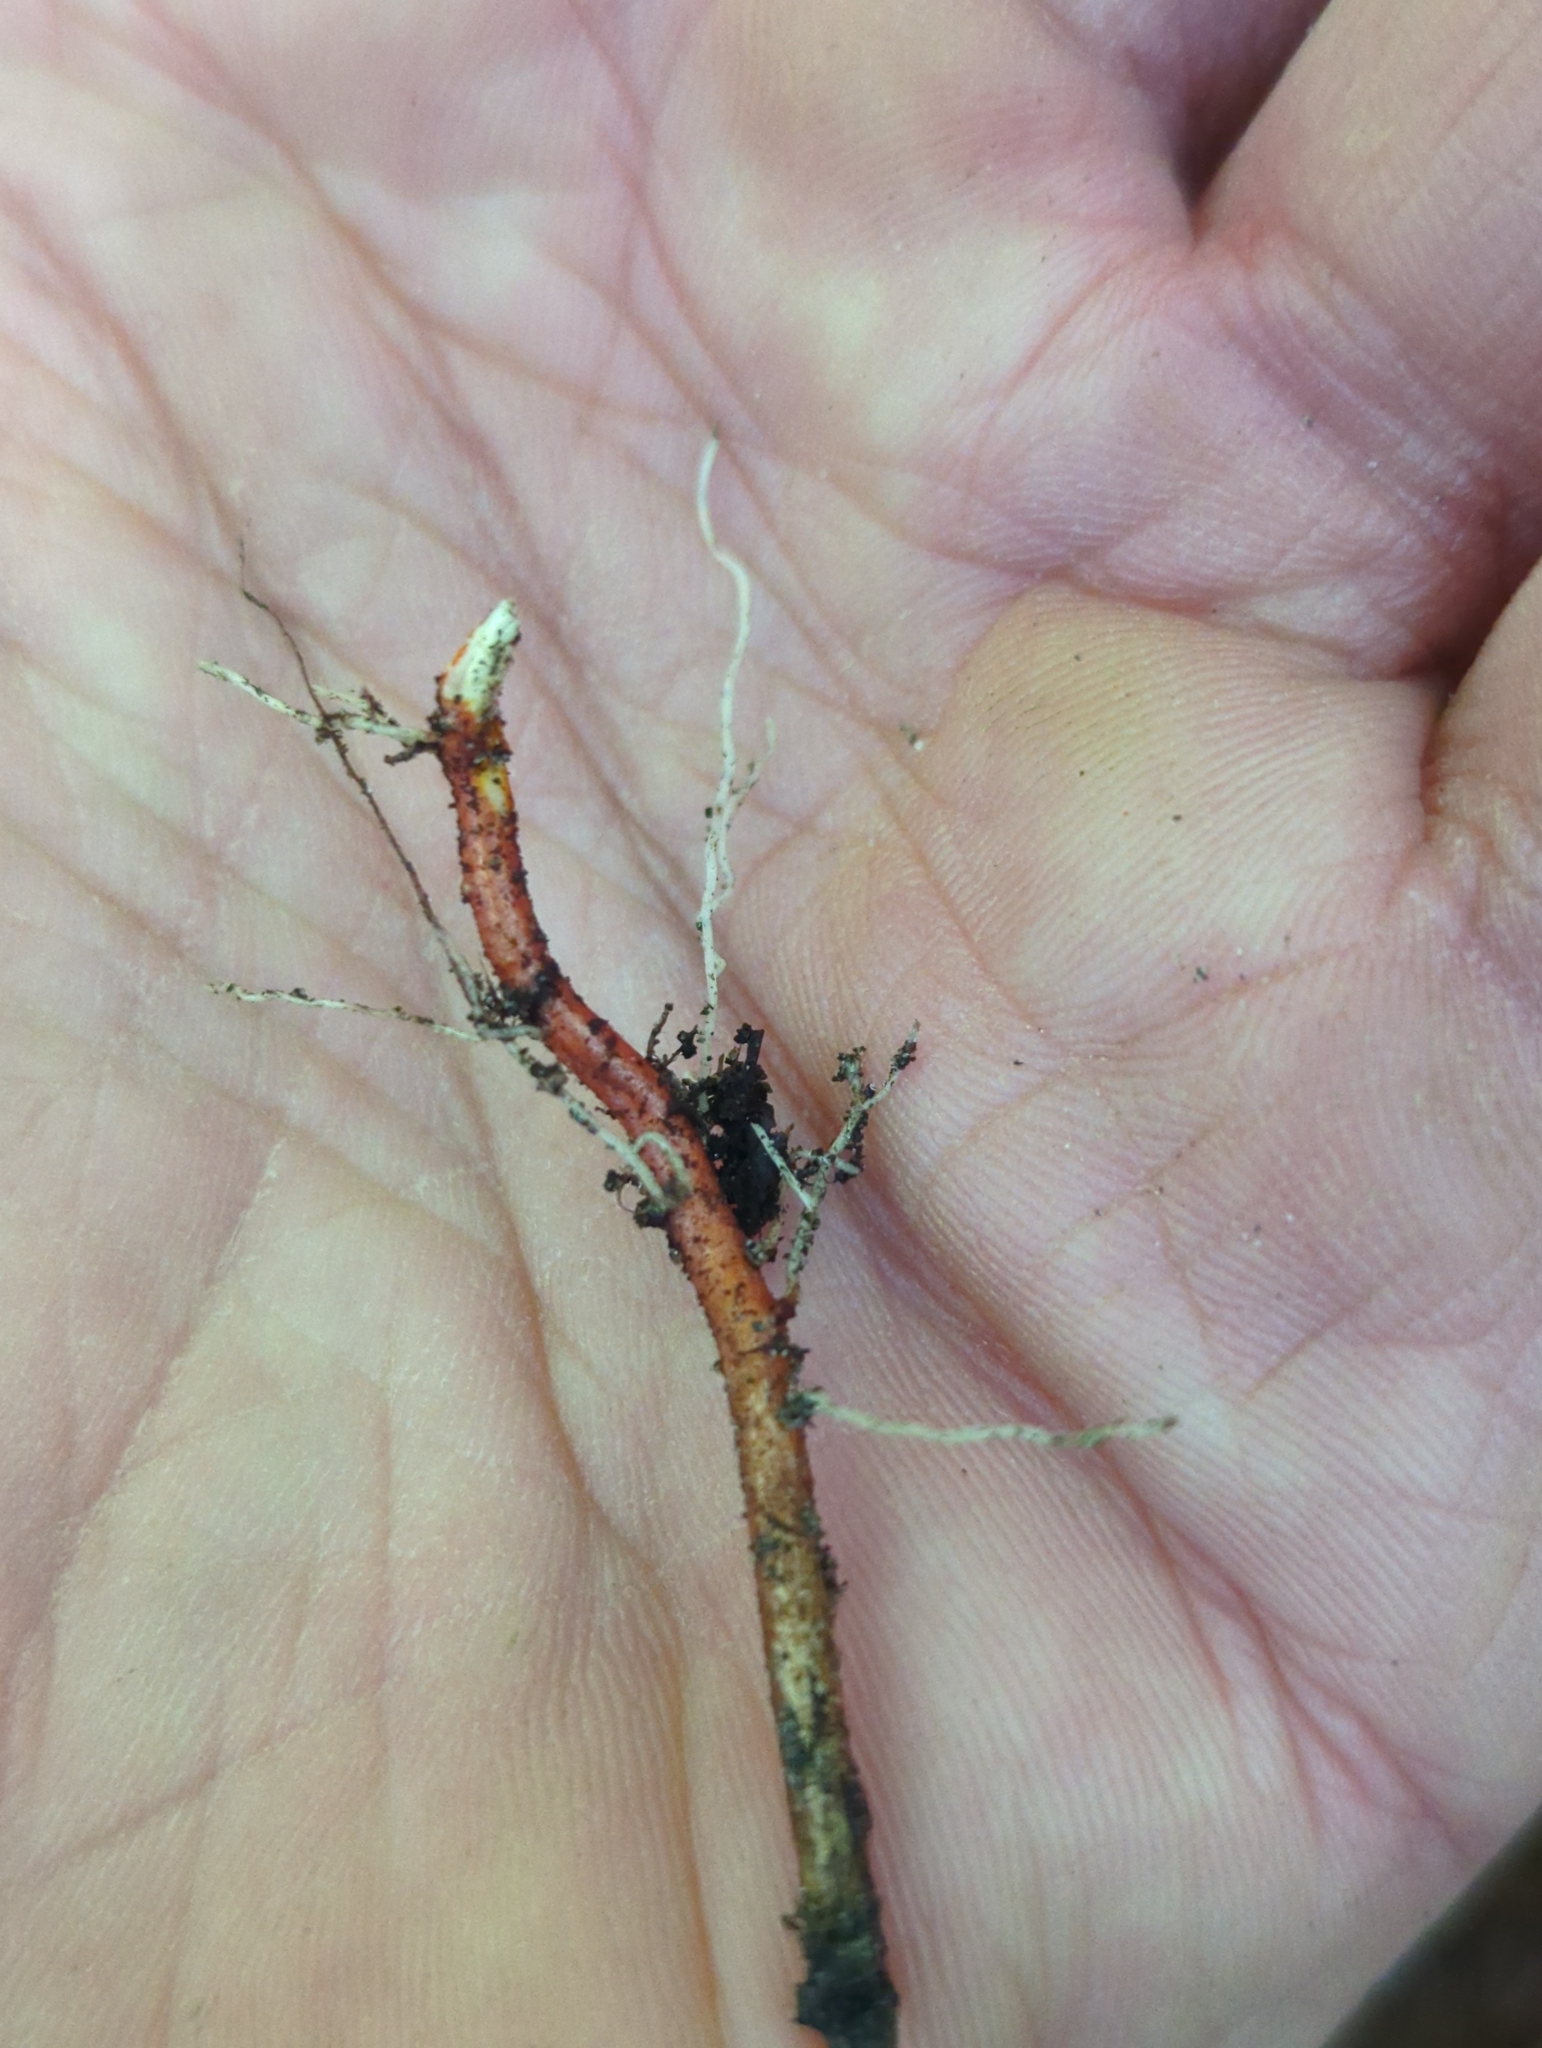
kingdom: Plantae
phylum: Tracheophyta
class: Magnoliopsida
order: Celastrales
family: Celastraceae
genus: Celastrus
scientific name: Celastrus orbiculatus
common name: Oriental bittersweet
